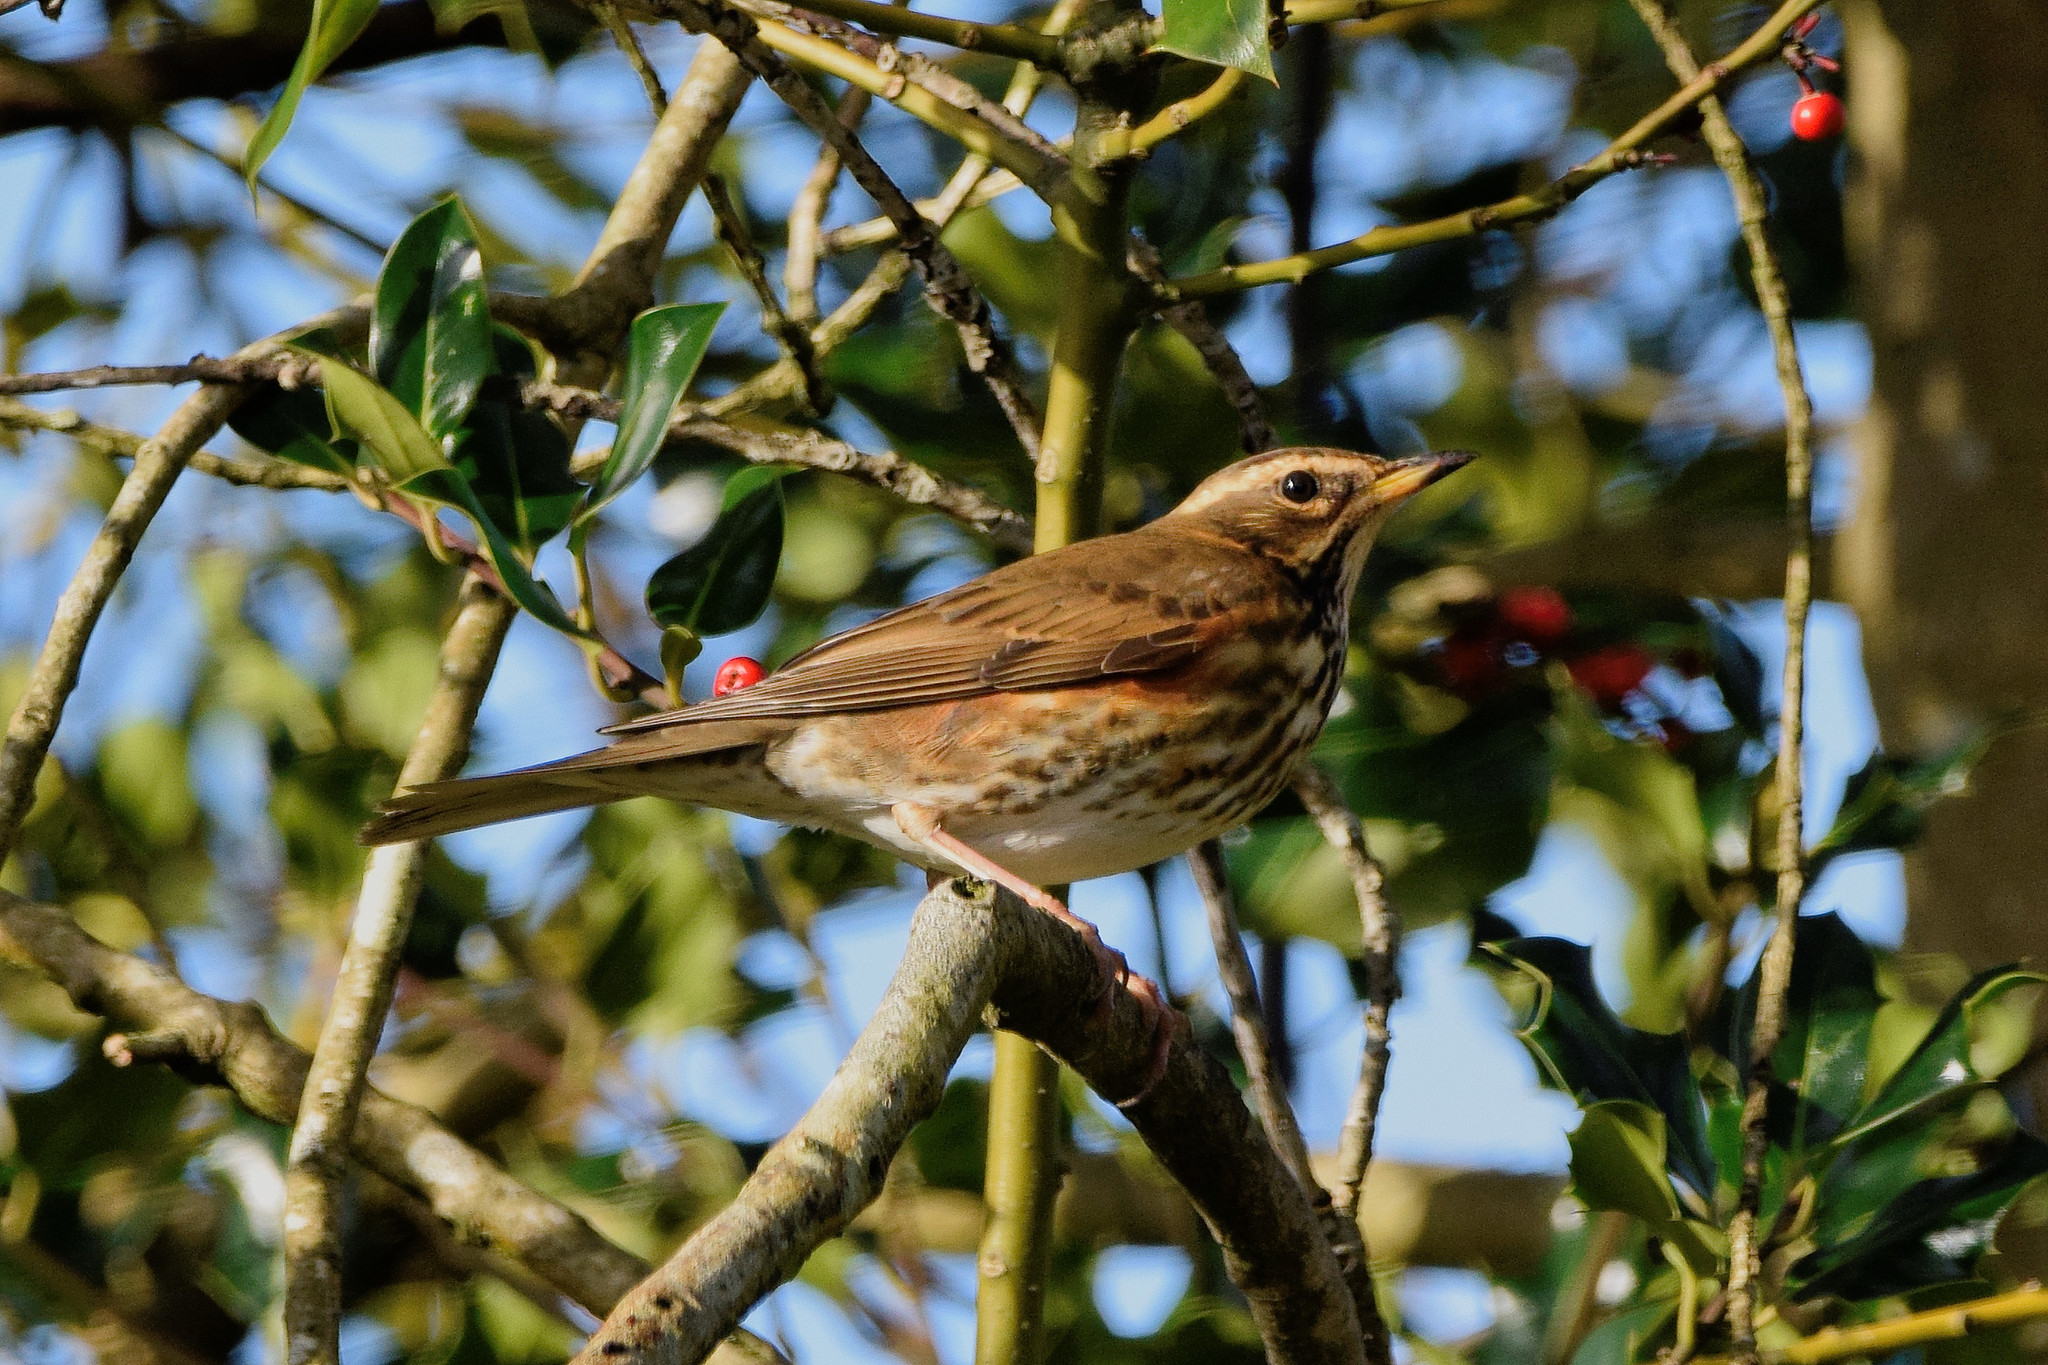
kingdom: Animalia
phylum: Chordata
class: Aves
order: Passeriformes
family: Turdidae
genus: Turdus
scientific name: Turdus iliacus
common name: Redwing
